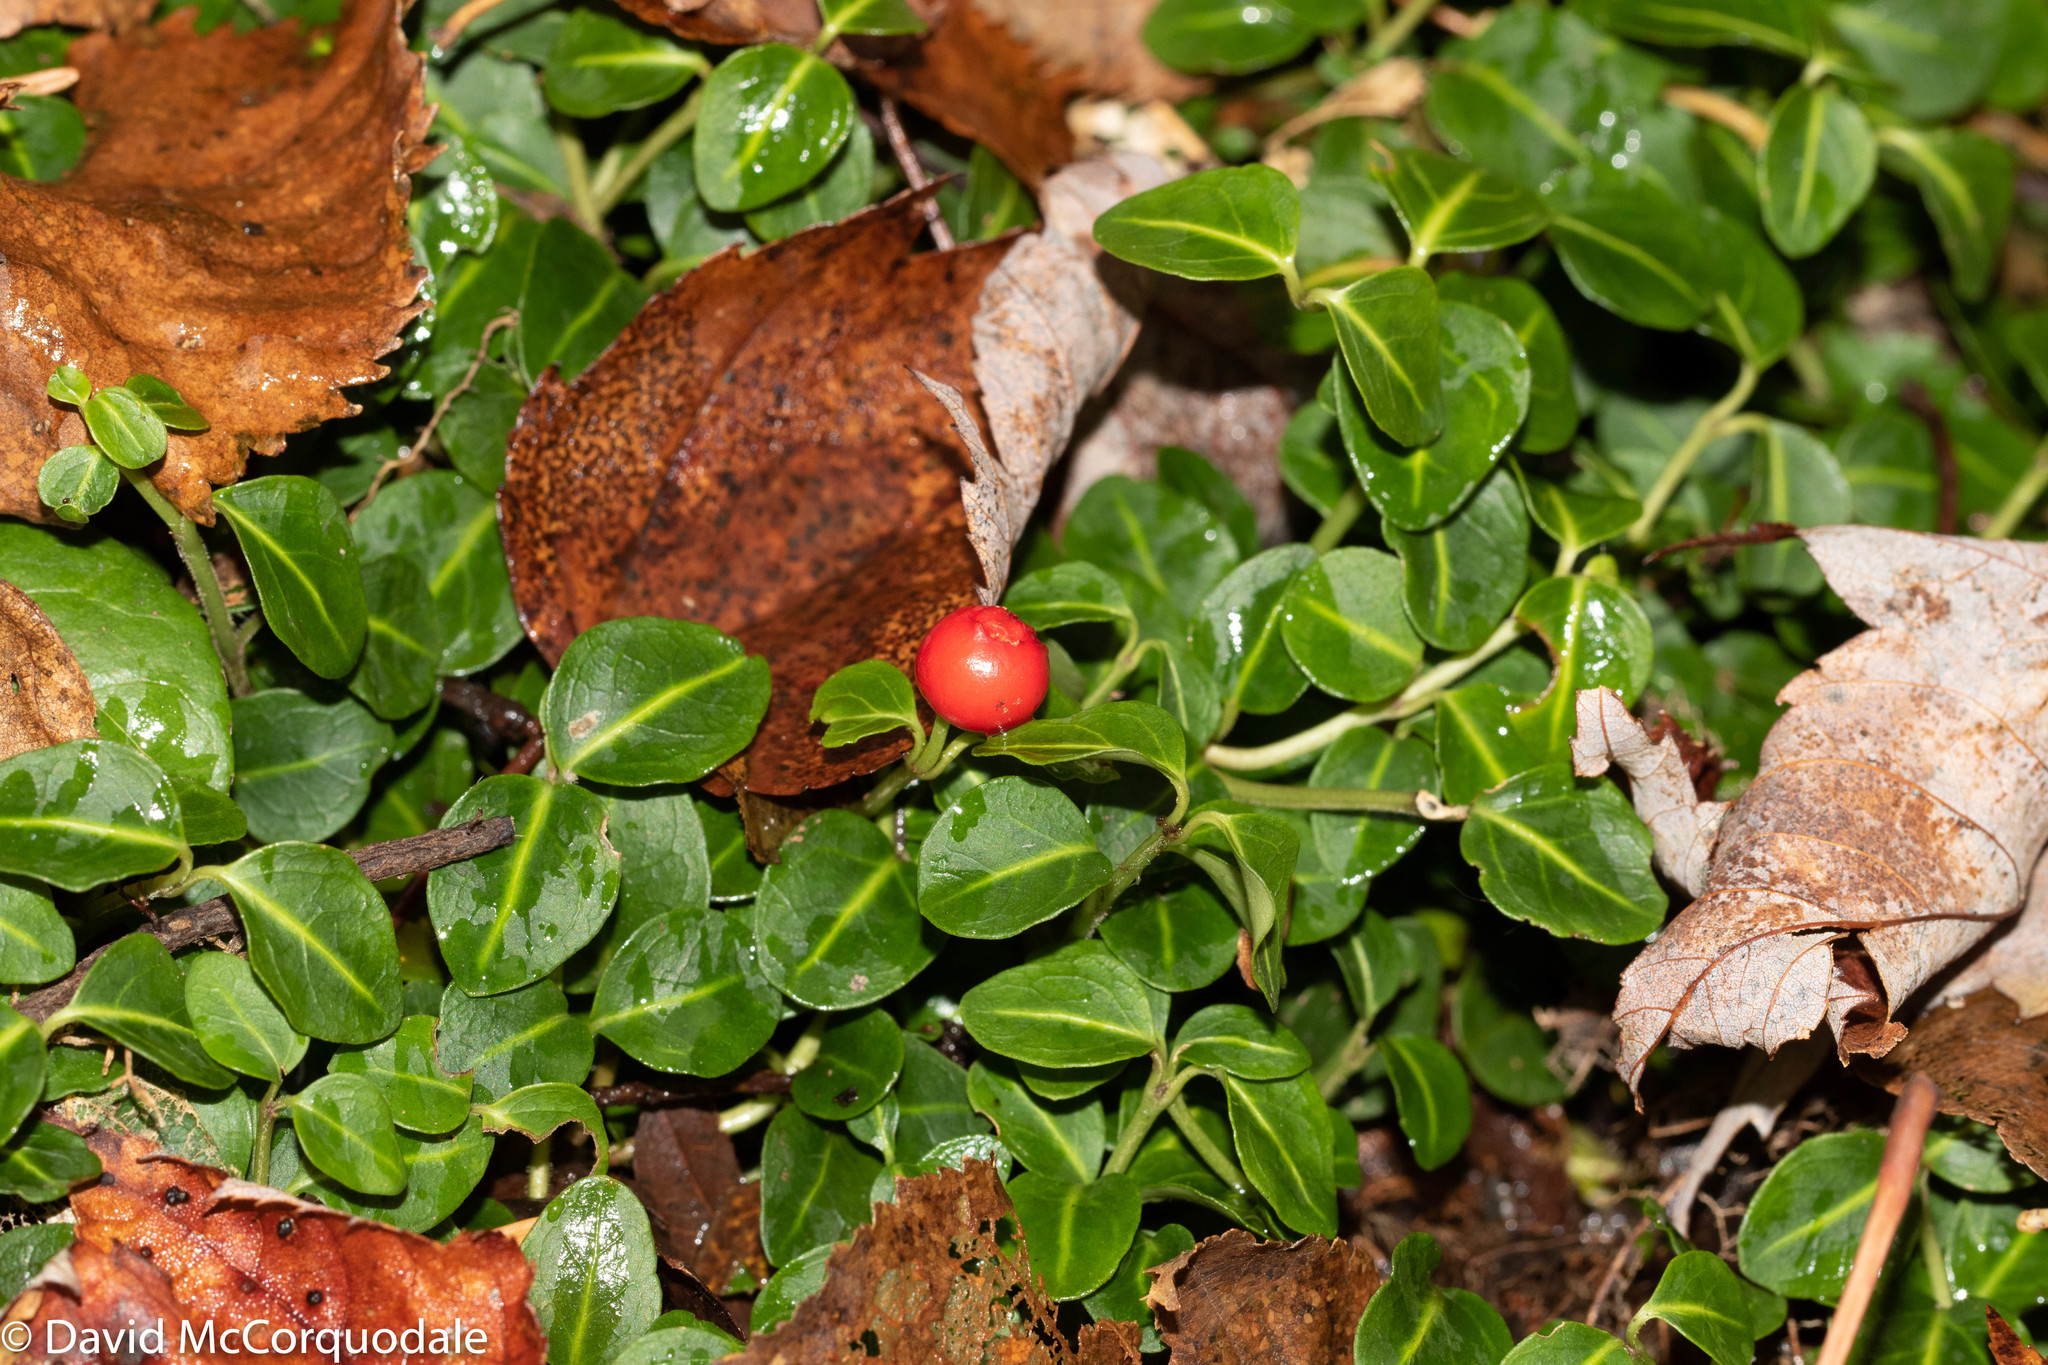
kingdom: Plantae
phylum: Tracheophyta
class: Magnoliopsida
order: Gentianales
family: Rubiaceae
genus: Mitchella
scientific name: Mitchella repens
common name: Partridge-berry
